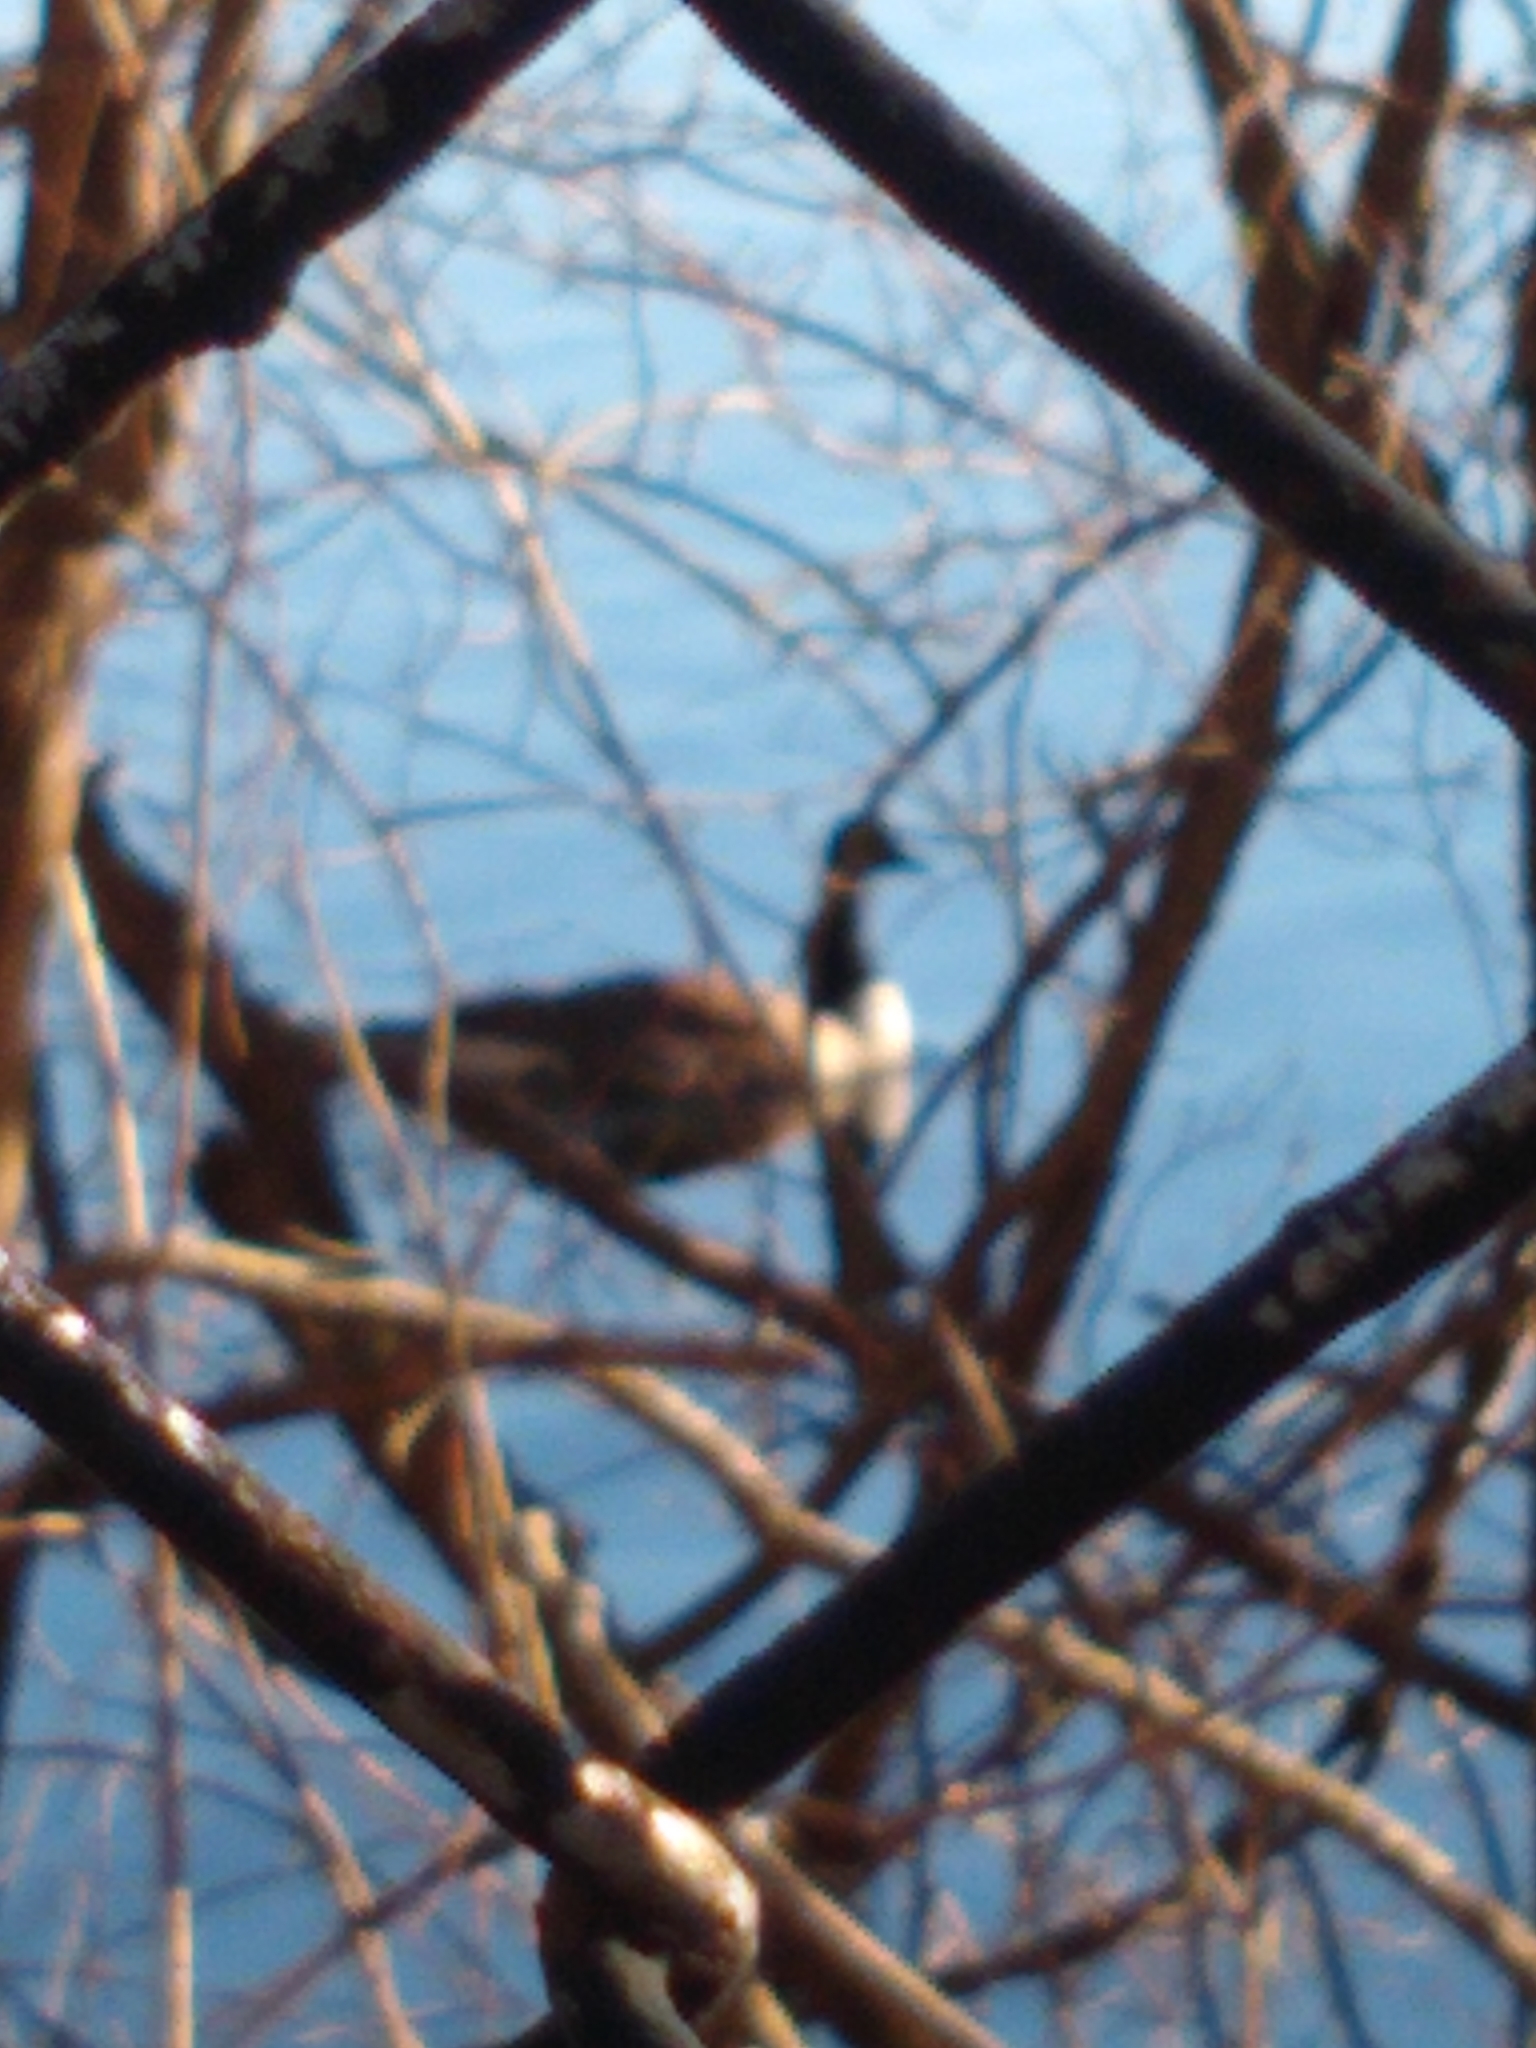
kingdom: Animalia
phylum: Chordata
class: Aves
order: Anseriformes
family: Anatidae
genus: Branta
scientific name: Branta canadensis
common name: Canada goose
